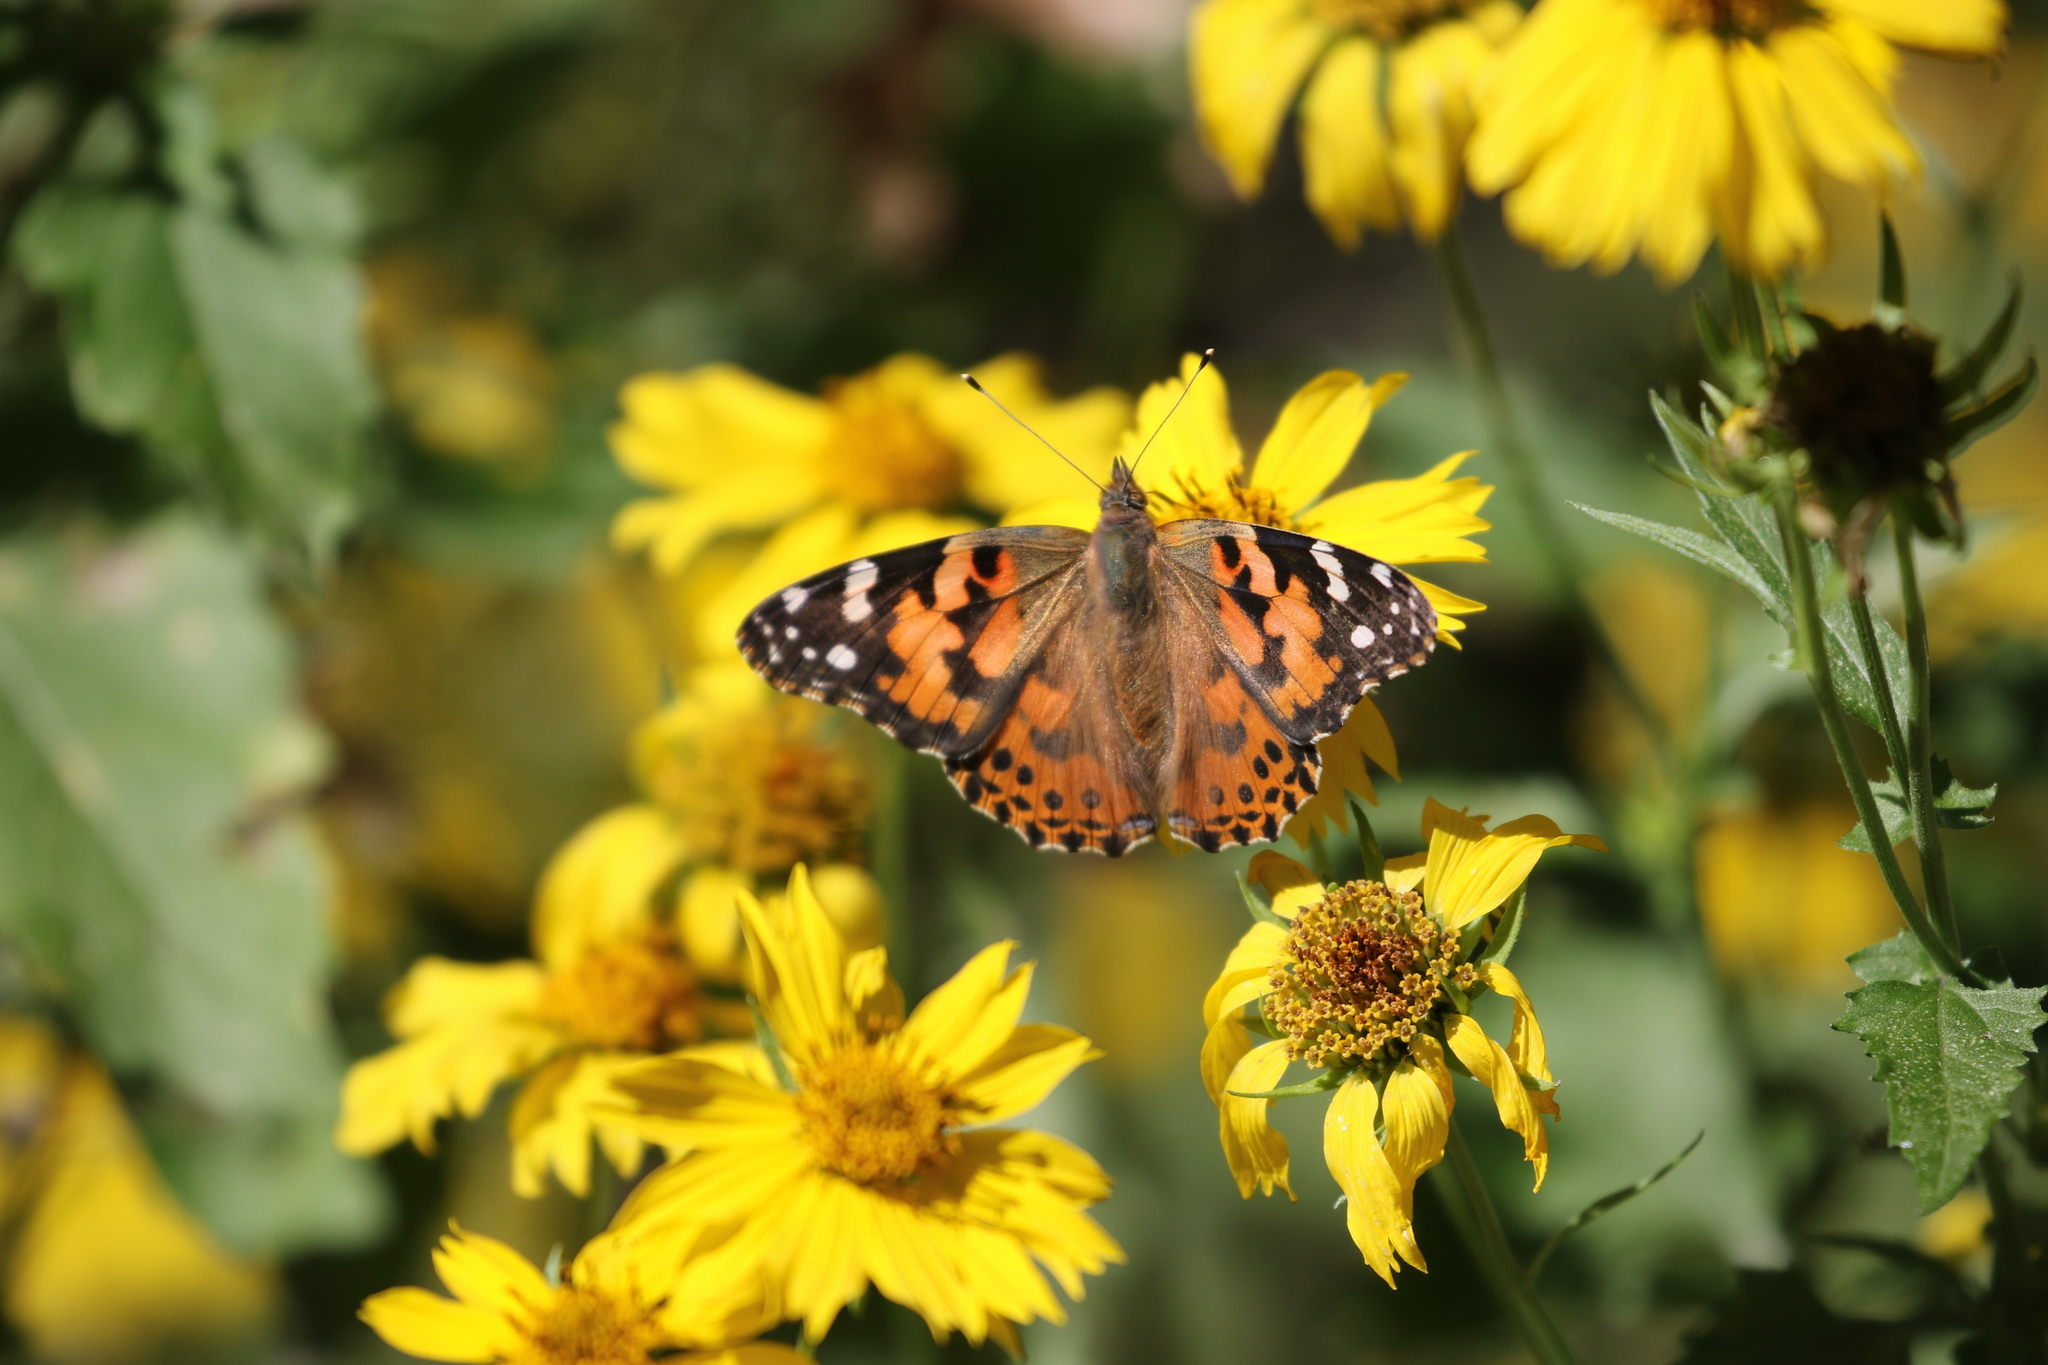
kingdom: Animalia
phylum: Arthropoda
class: Insecta
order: Lepidoptera
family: Nymphalidae
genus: Vanessa
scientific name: Vanessa cardui
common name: Painted lady
